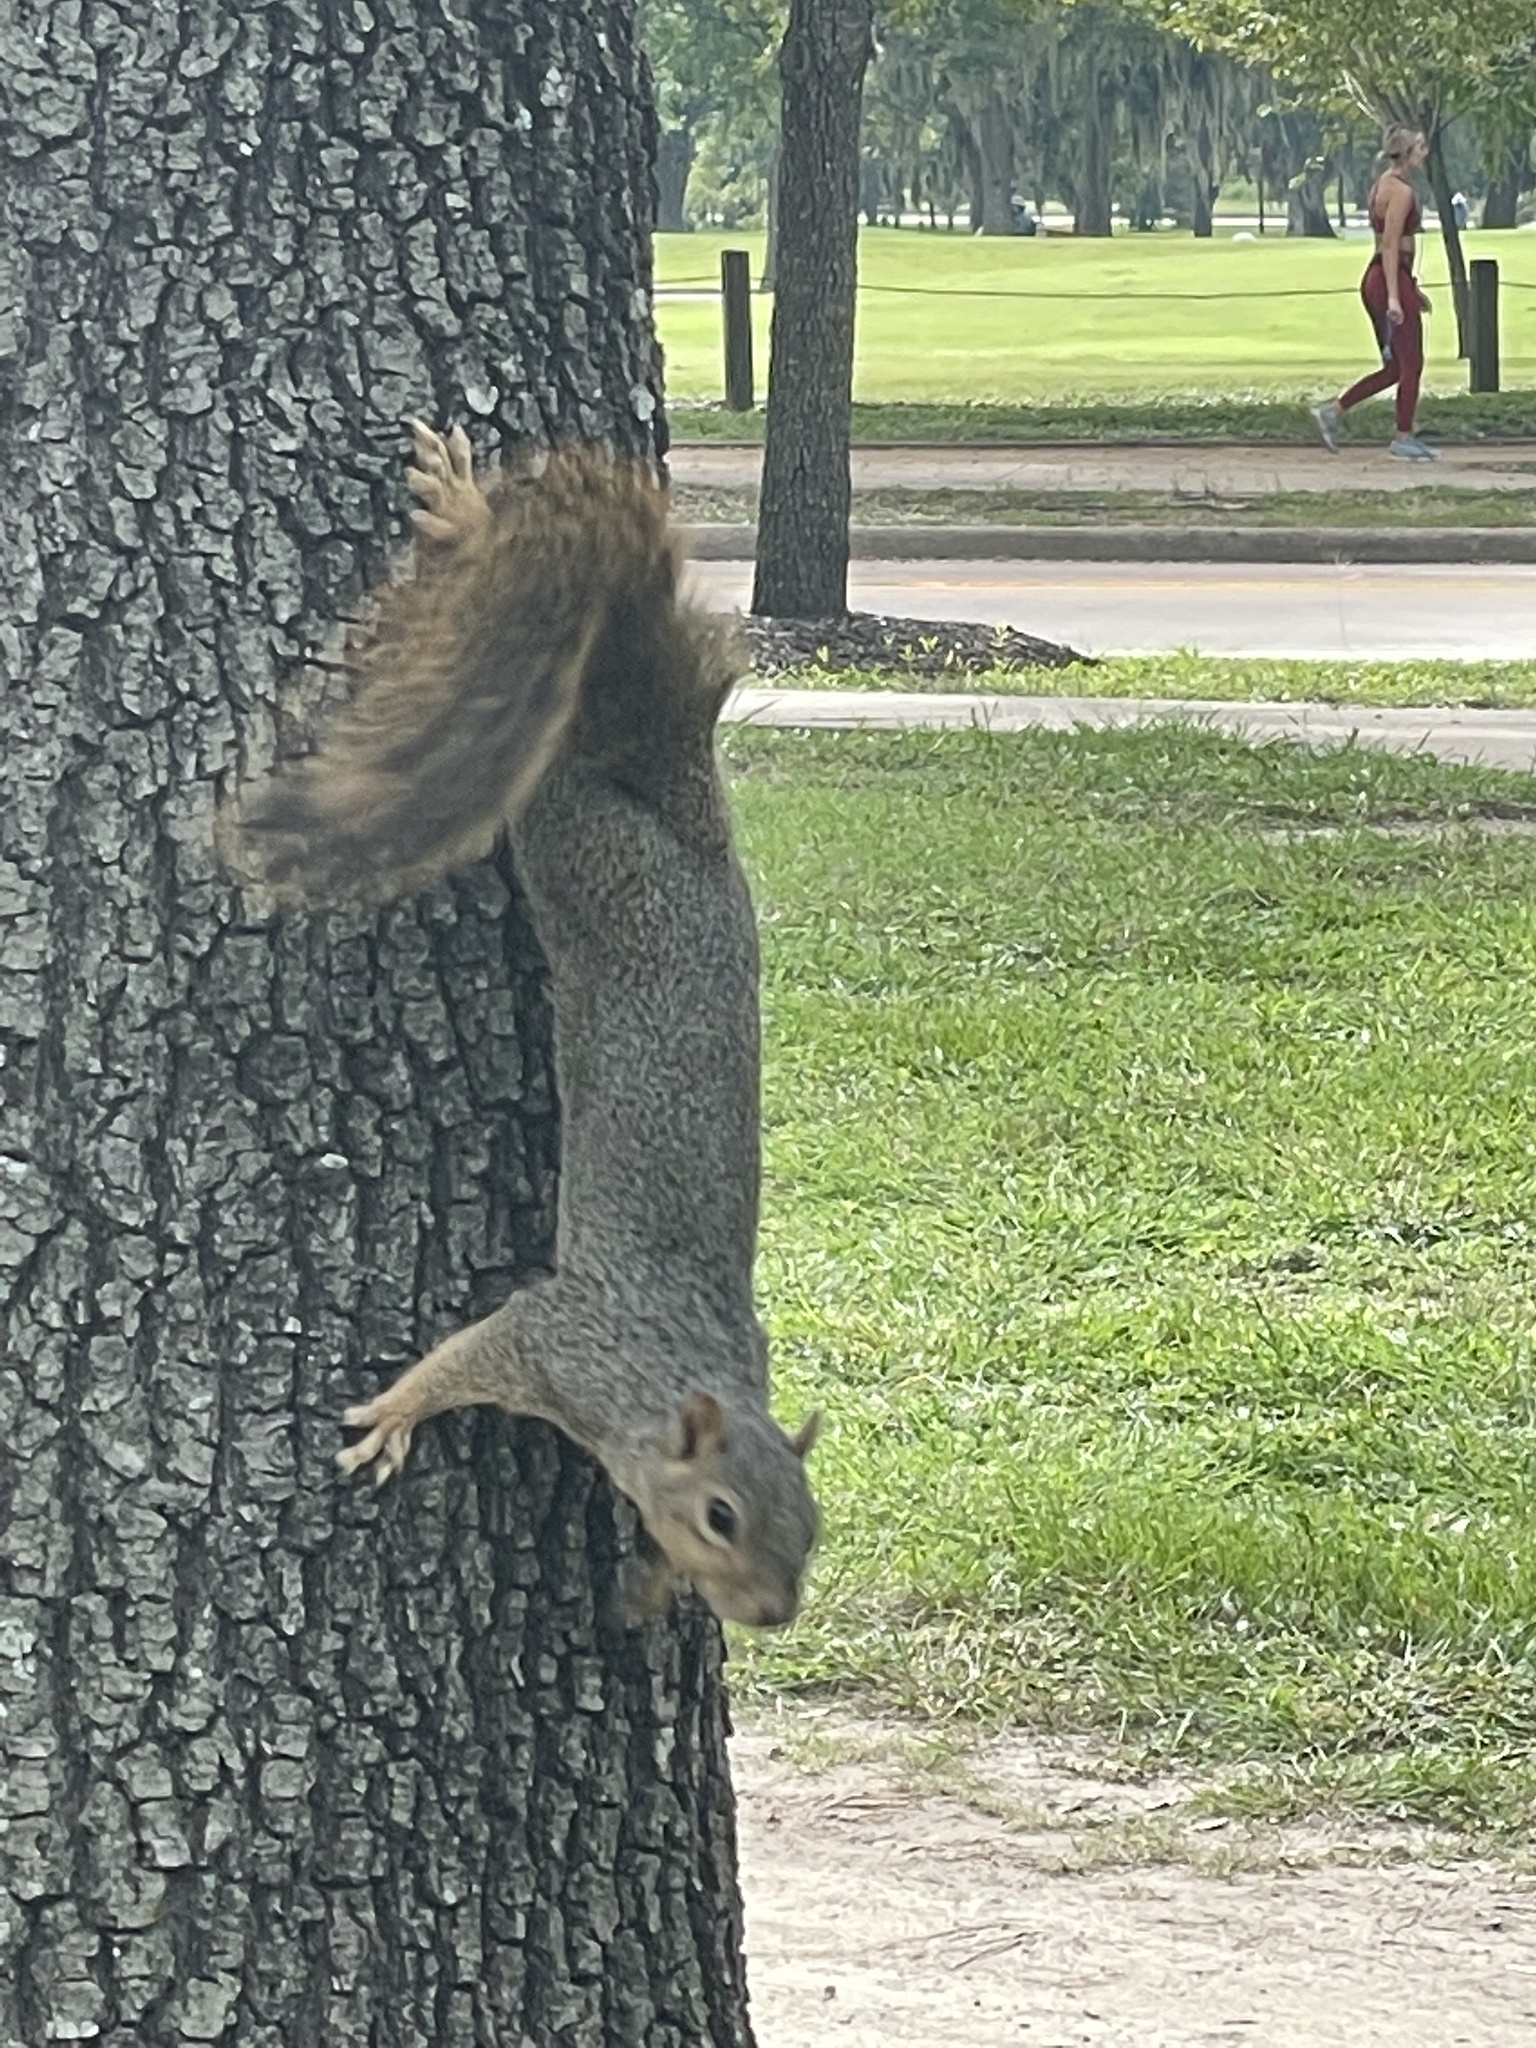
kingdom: Animalia
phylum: Chordata
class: Mammalia
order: Rodentia
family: Sciuridae
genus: Sciurus
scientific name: Sciurus niger
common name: Fox squirrel
